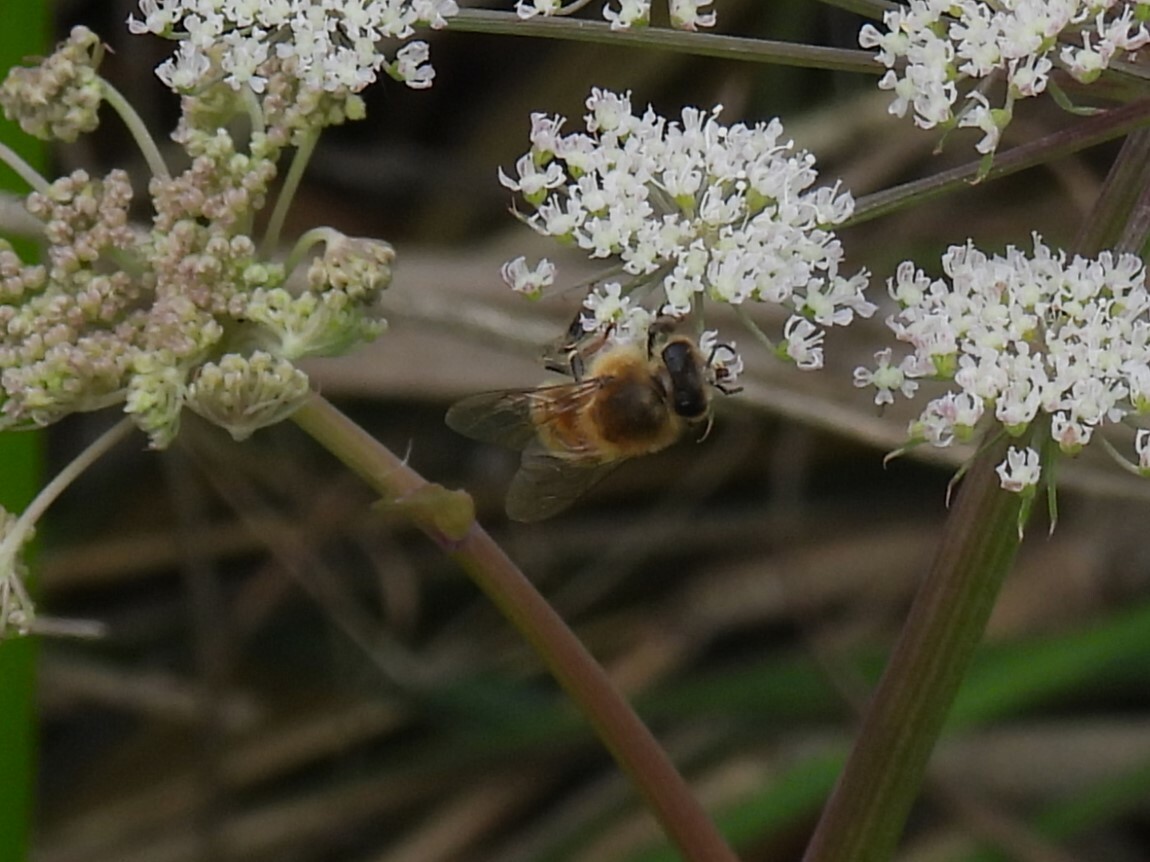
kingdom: Animalia
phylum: Arthropoda
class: Insecta
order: Hymenoptera
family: Apidae
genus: Apis
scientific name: Apis mellifera
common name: Honey bee
